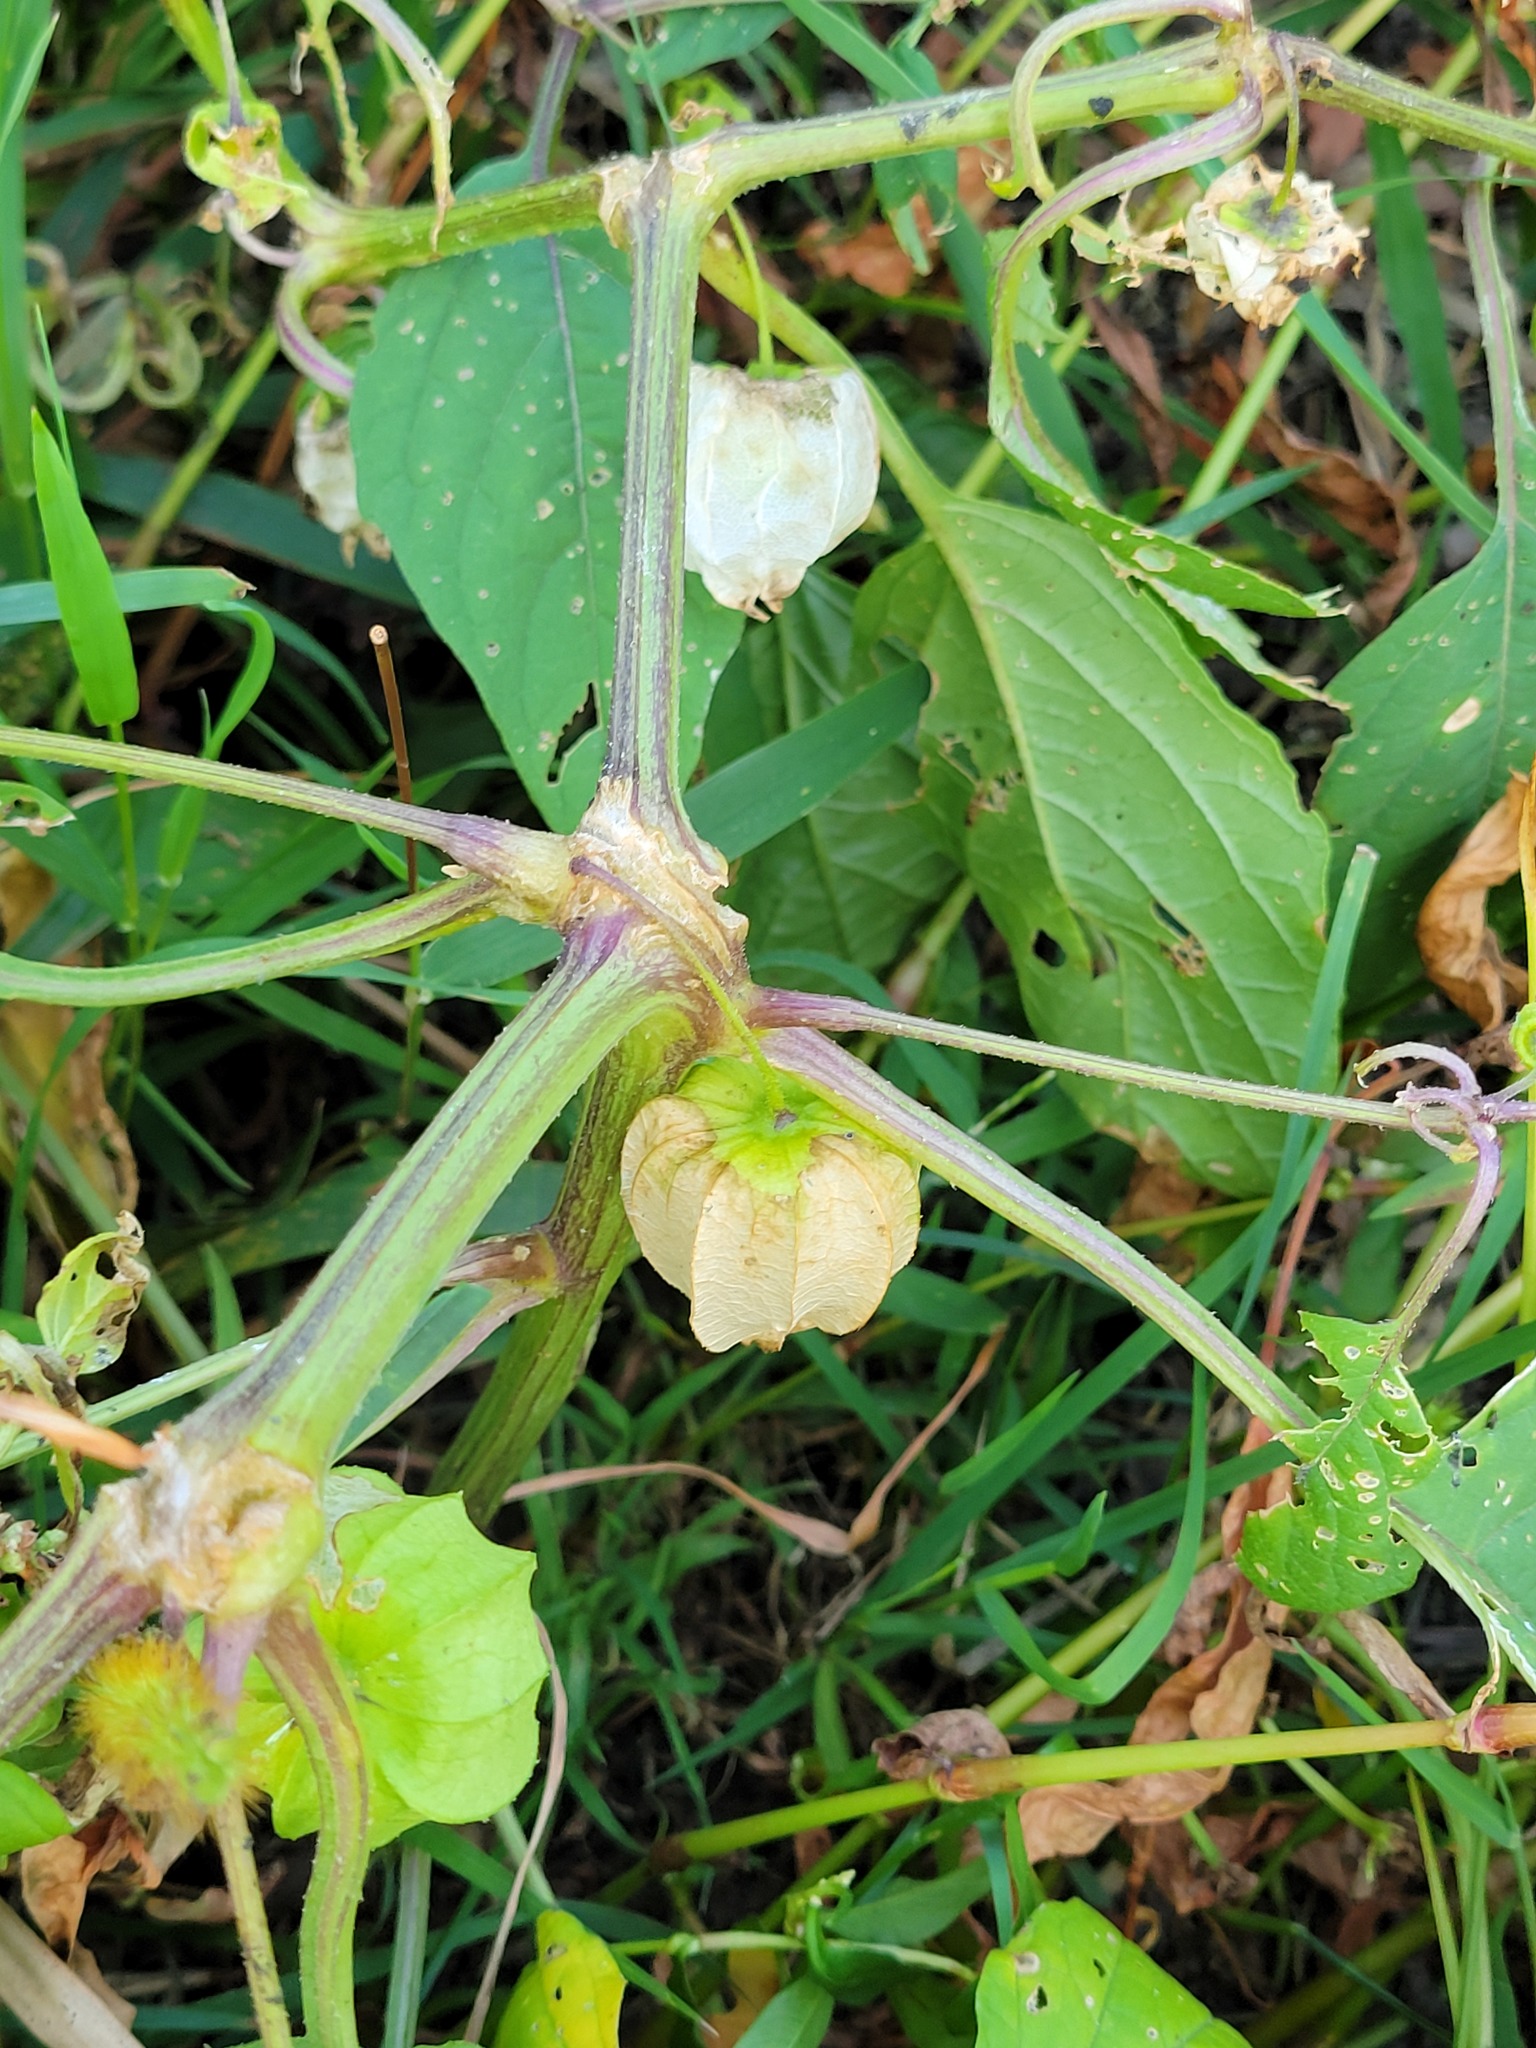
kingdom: Plantae
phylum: Tracheophyta
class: Magnoliopsida
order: Solanales
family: Solanaceae
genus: Physalis
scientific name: Physalis longifolia
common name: Common ground-cherry
